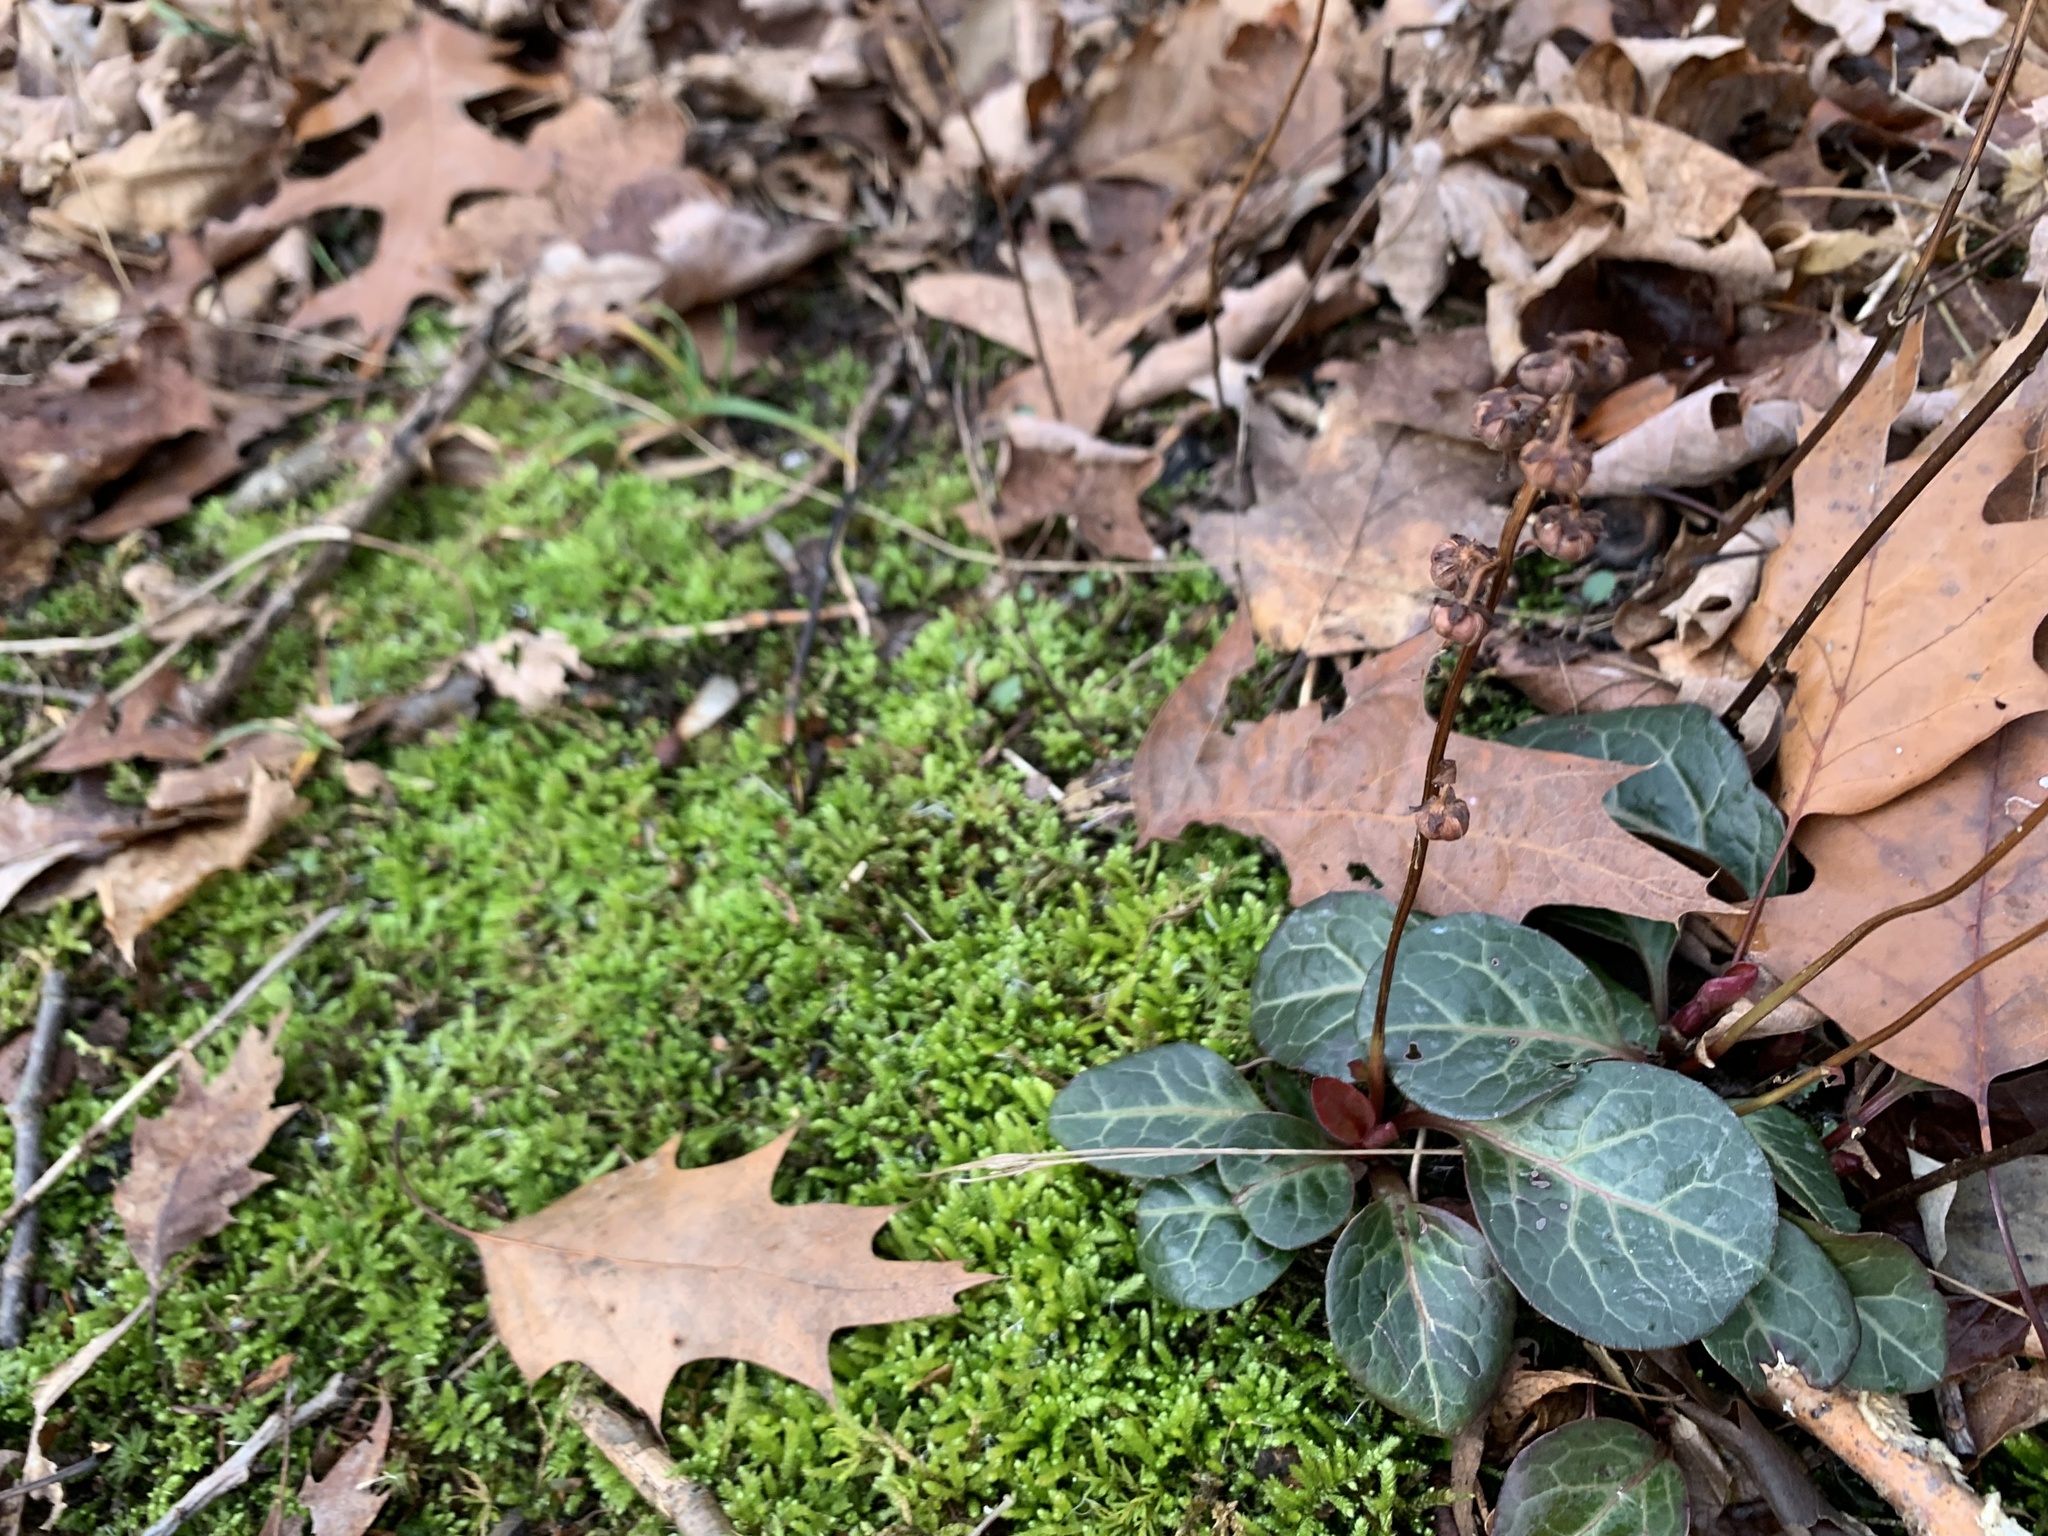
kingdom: Plantae
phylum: Tracheophyta
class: Magnoliopsida
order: Ericales
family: Ericaceae
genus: Pyrola
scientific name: Pyrola americana
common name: American wintergreen
